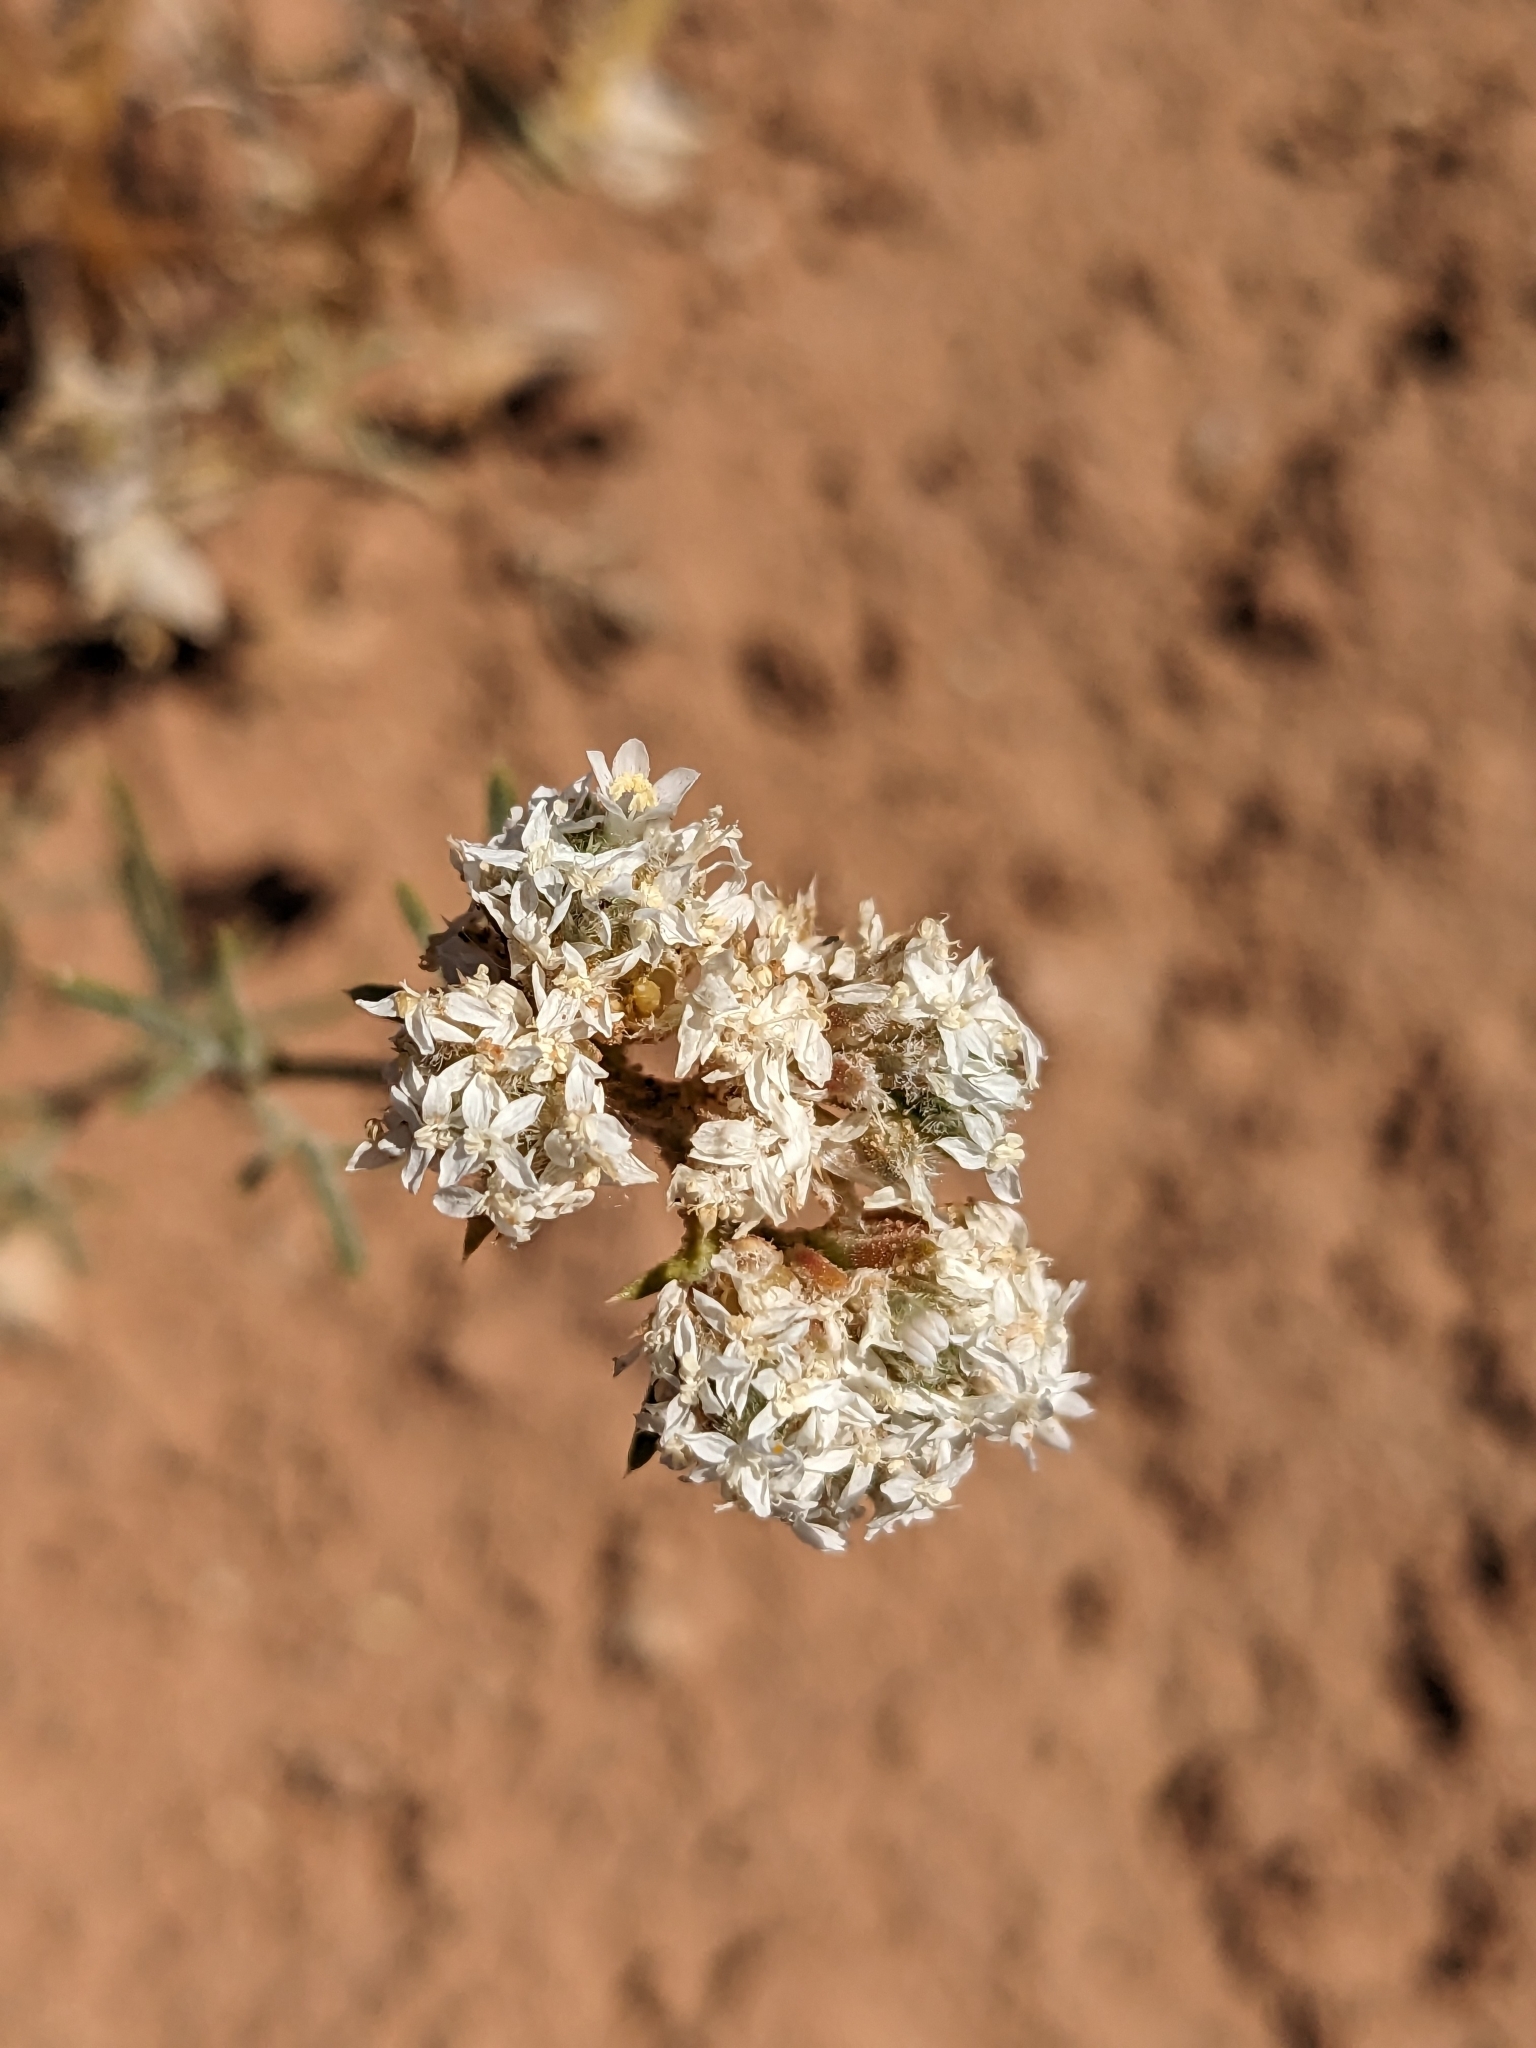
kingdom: Plantae
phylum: Tracheophyta
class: Magnoliopsida
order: Ericales
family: Polemoniaceae
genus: Ipomopsis
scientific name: Ipomopsis congesta
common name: Ball-head gilia
